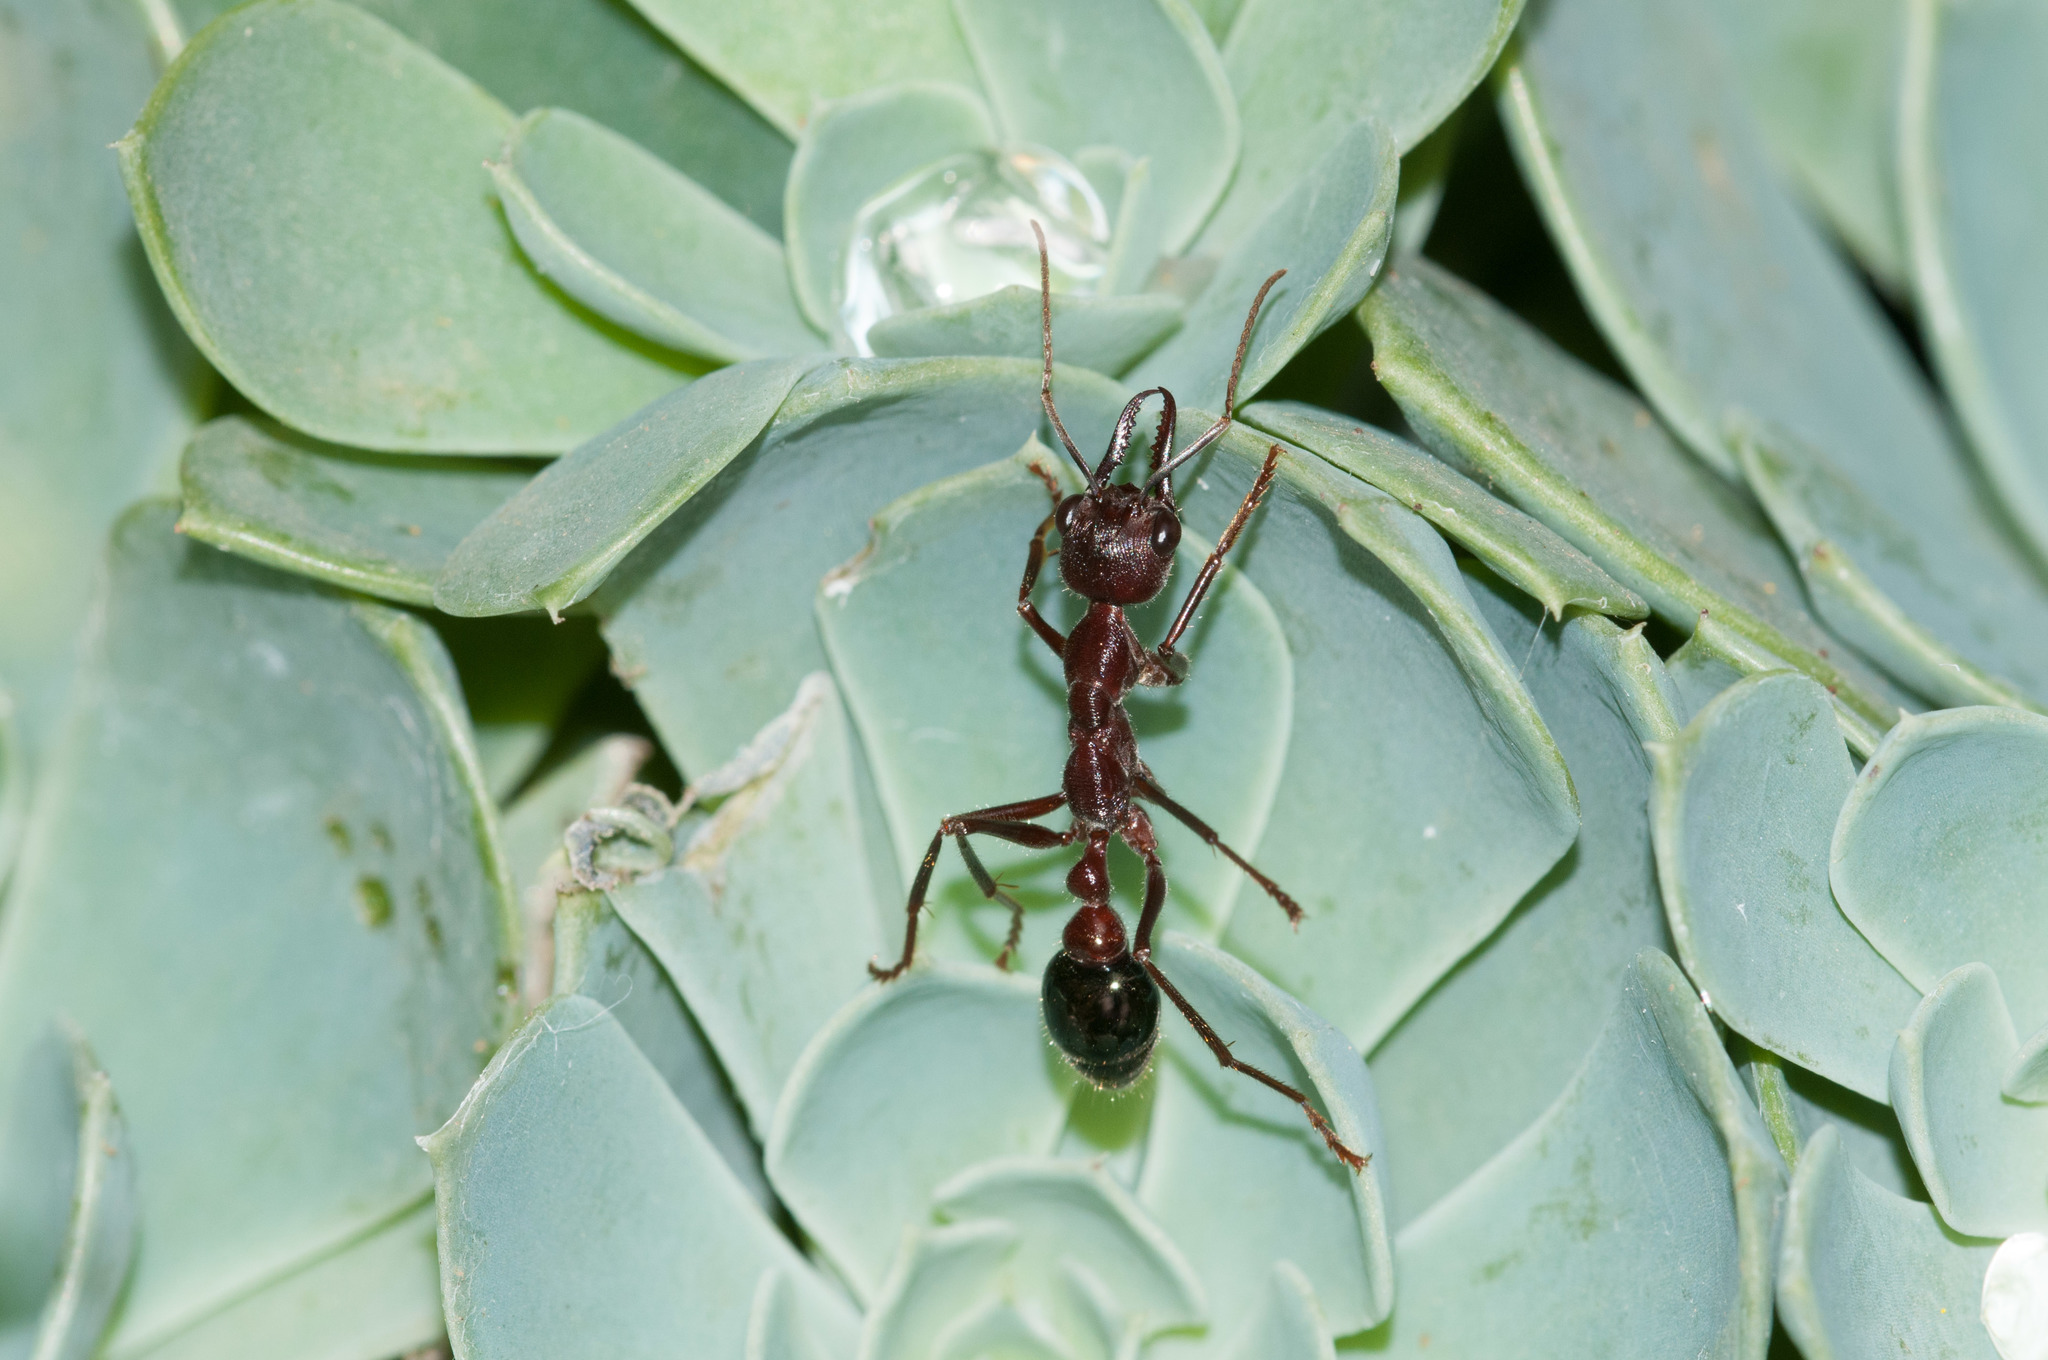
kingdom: Animalia
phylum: Arthropoda
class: Insecta
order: Hymenoptera
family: Formicidae
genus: Myrmecia
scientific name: Myrmecia forficata
